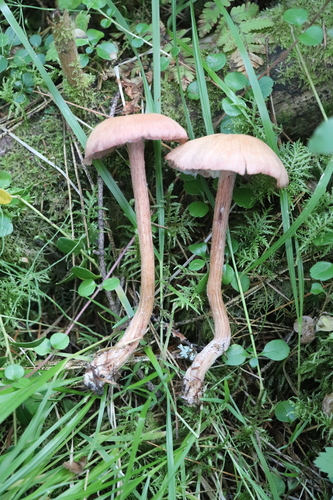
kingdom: Fungi
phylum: Basidiomycota
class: Agaricomycetes
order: Agaricales
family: Hydnangiaceae
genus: Laccaria
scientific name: Laccaria proxima
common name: Scurfy deceiver
